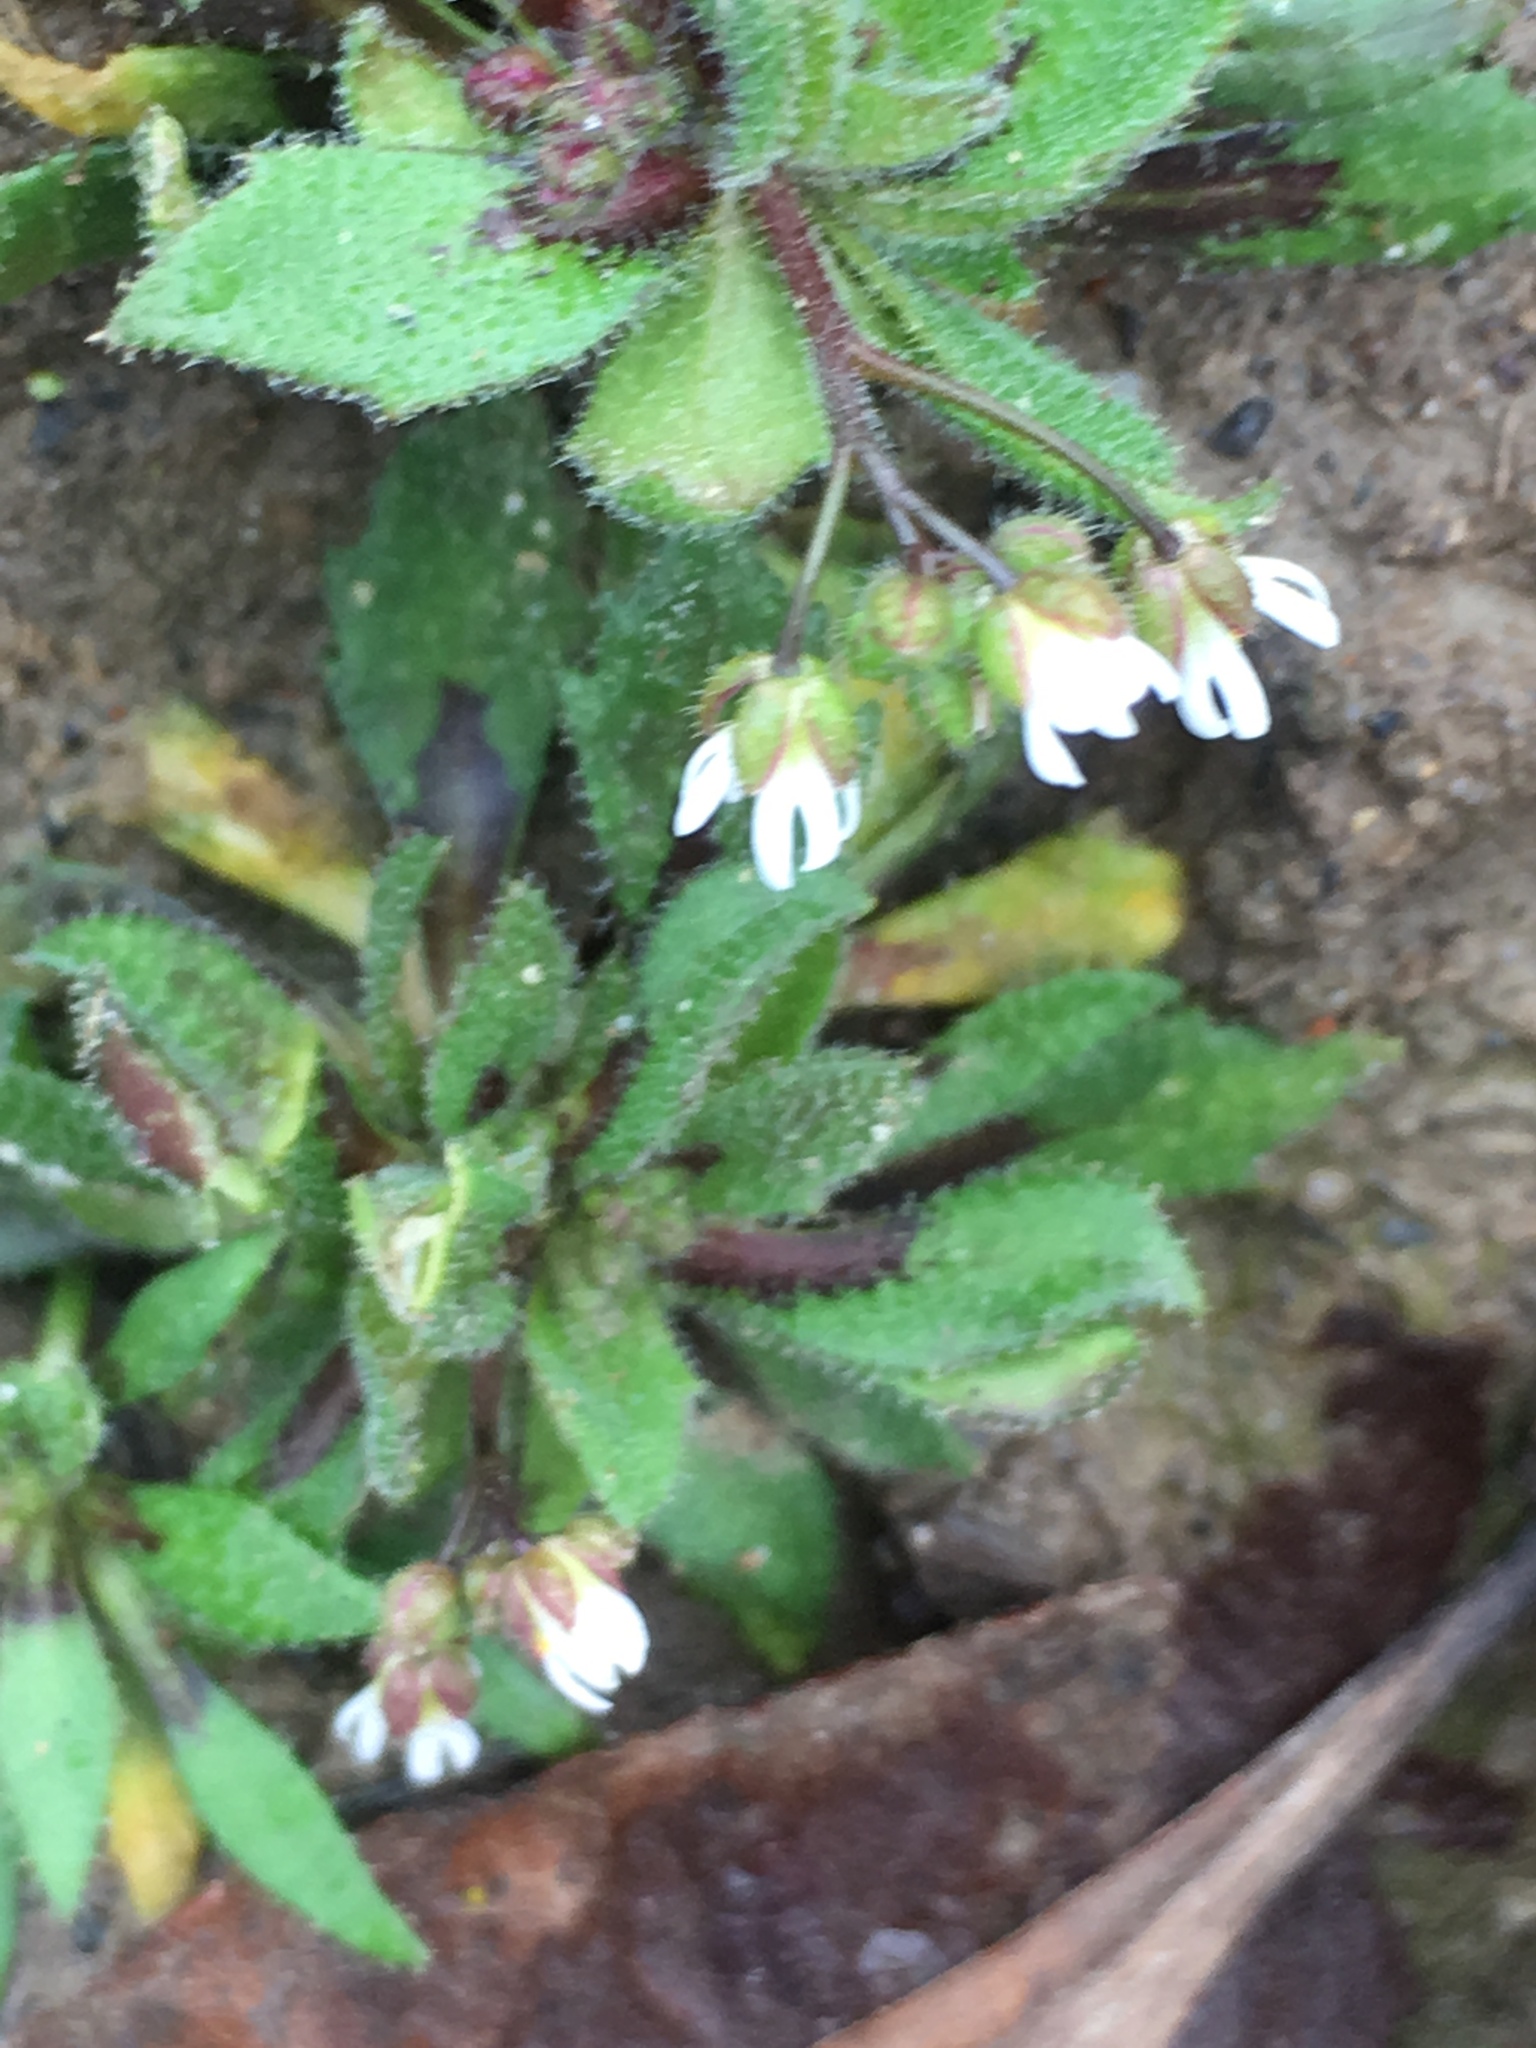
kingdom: Plantae
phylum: Tracheophyta
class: Magnoliopsida
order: Brassicales
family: Brassicaceae
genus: Draba
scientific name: Draba verna
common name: Spring draba
